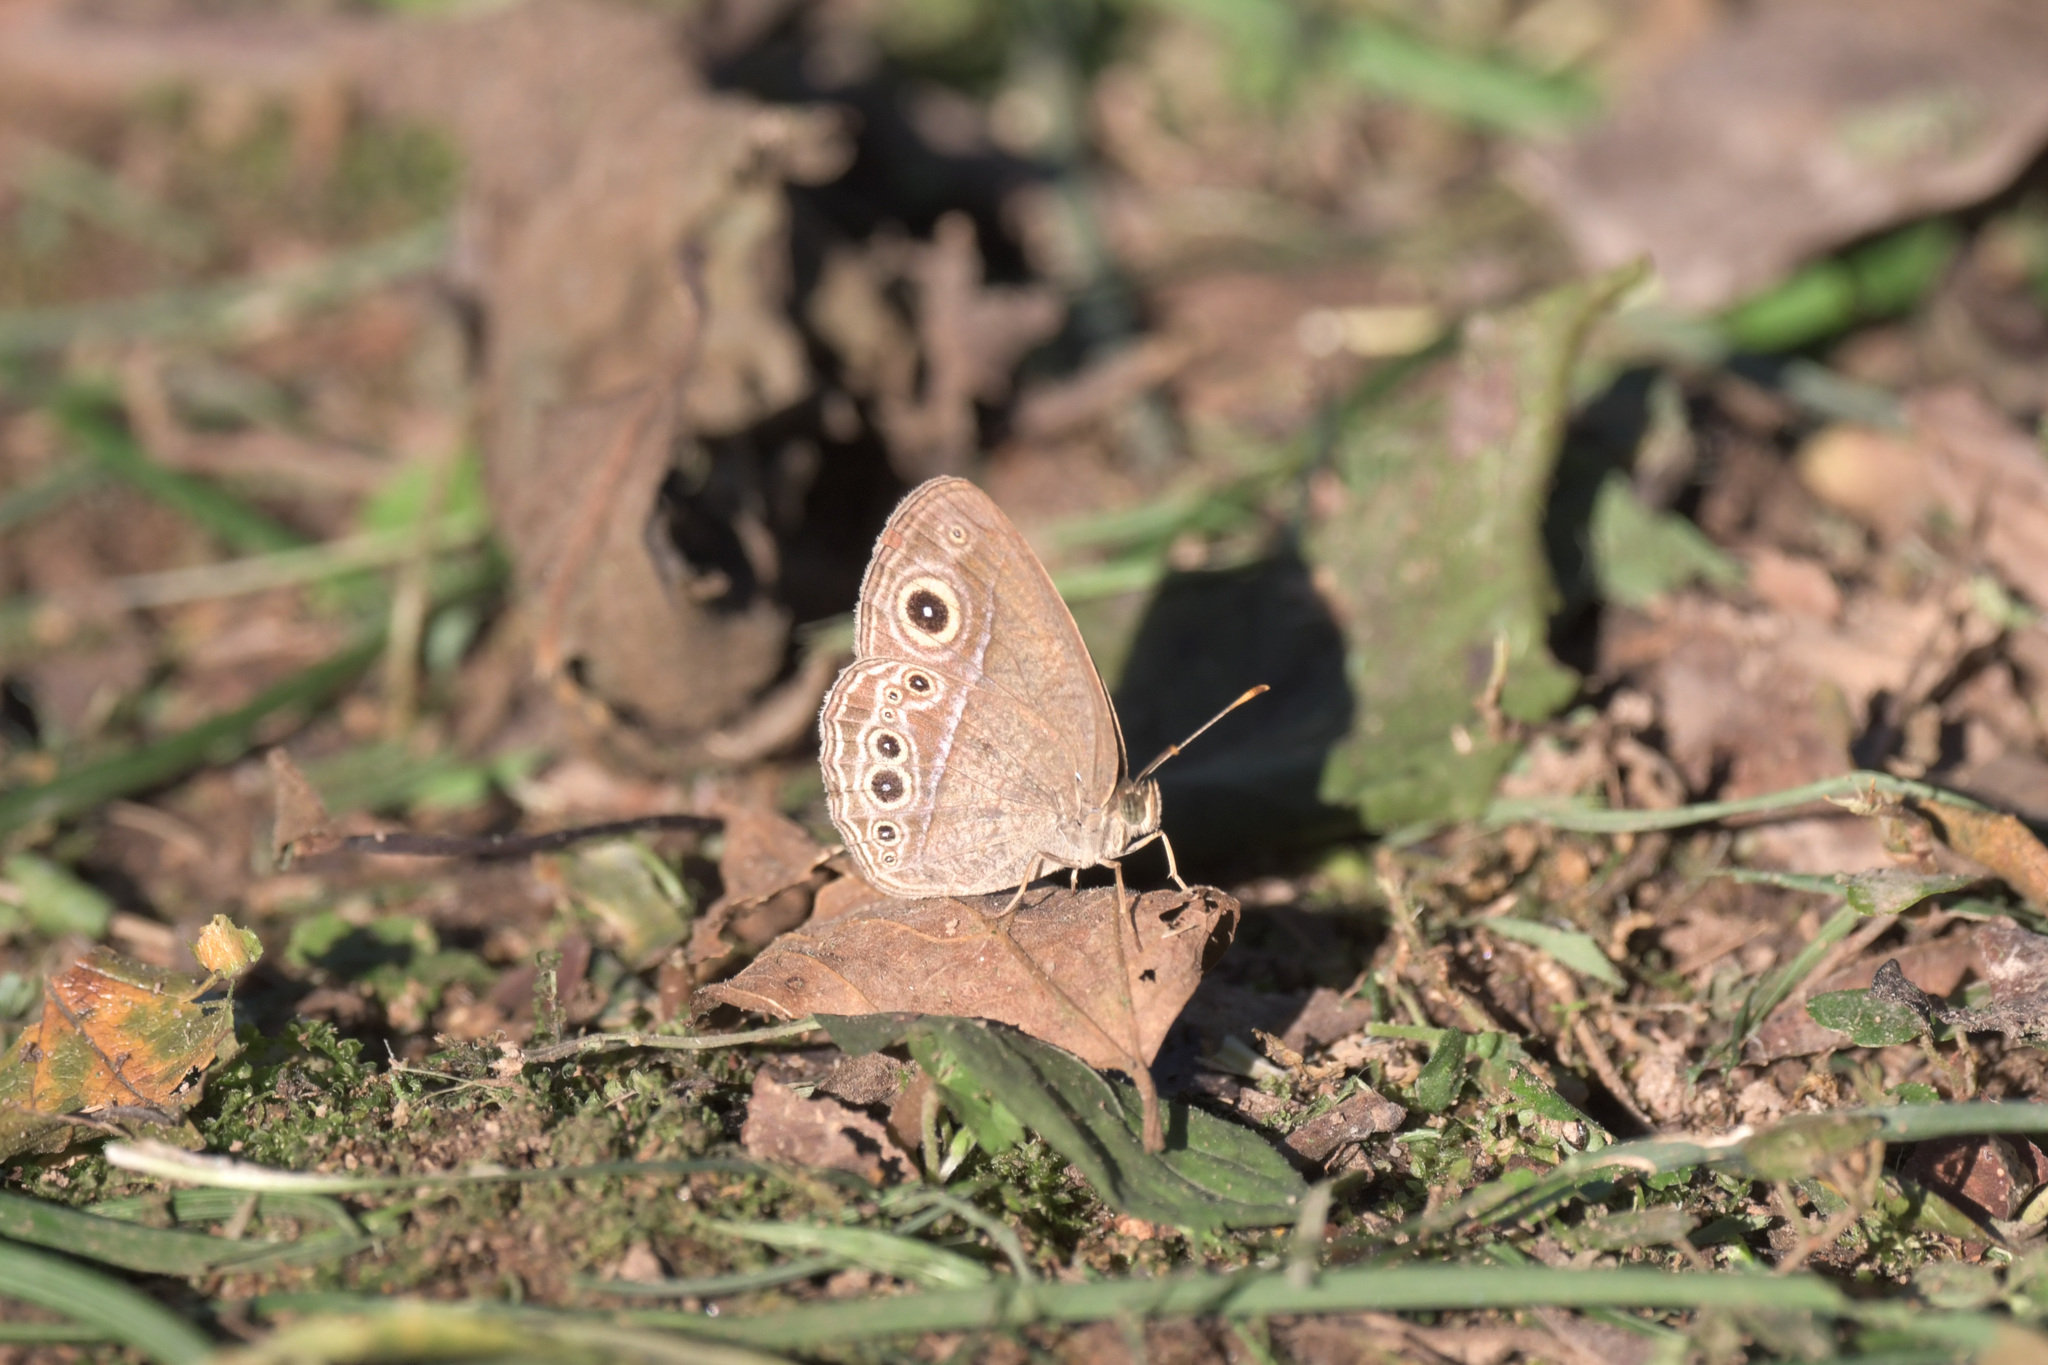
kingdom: Animalia
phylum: Arthropoda
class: Insecta
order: Lepidoptera
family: Nymphalidae
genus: Mycalesis
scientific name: Mycalesis sangaica
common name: Painted bushbrown
